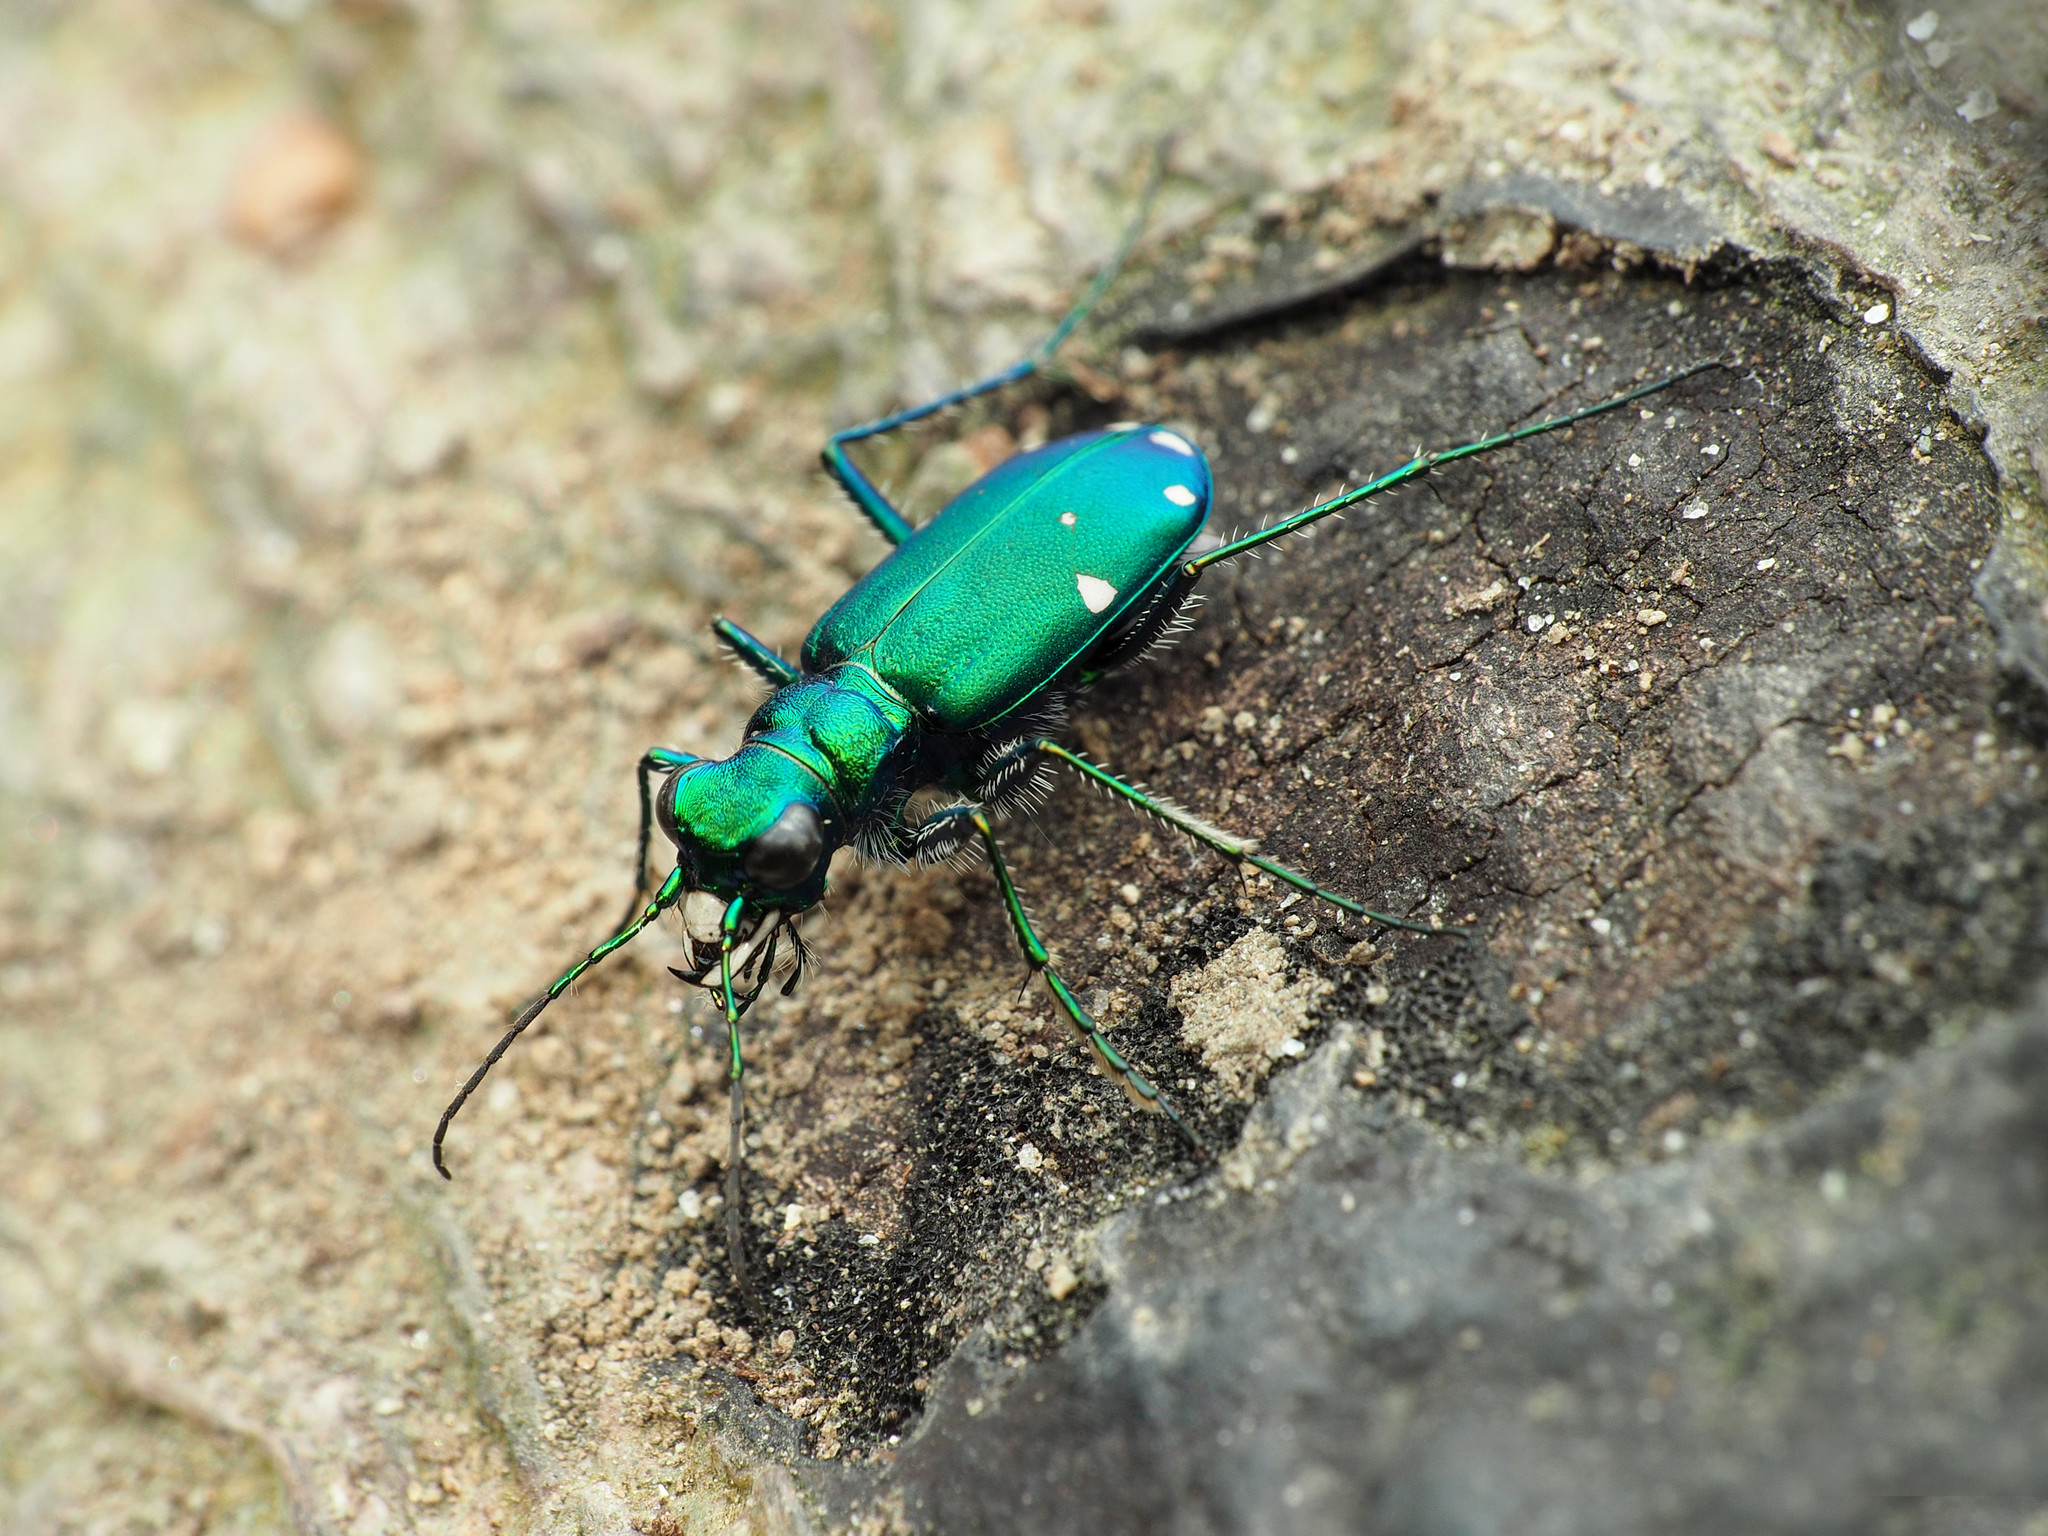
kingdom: Animalia
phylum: Arthropoda
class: Insecta
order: Coleoptera
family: Carabidae
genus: Cicindela
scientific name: Cicindela sexguttata
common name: Six-spotted tiger beetle
